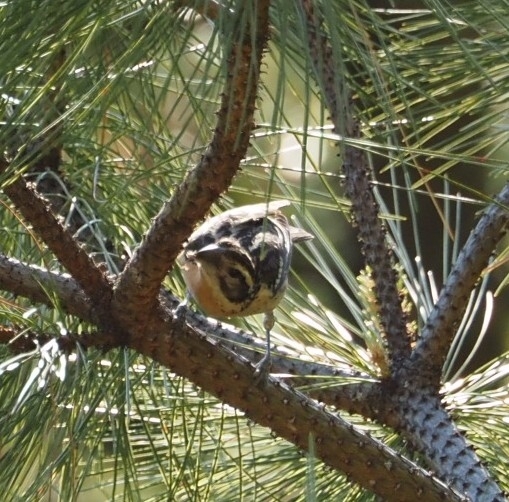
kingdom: Animalia
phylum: Chordata
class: Aves
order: Passeriformes
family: Cardinalidae
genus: Pheucticus
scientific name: Pheucticus melanocephalus
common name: Black-headed grosbeak
